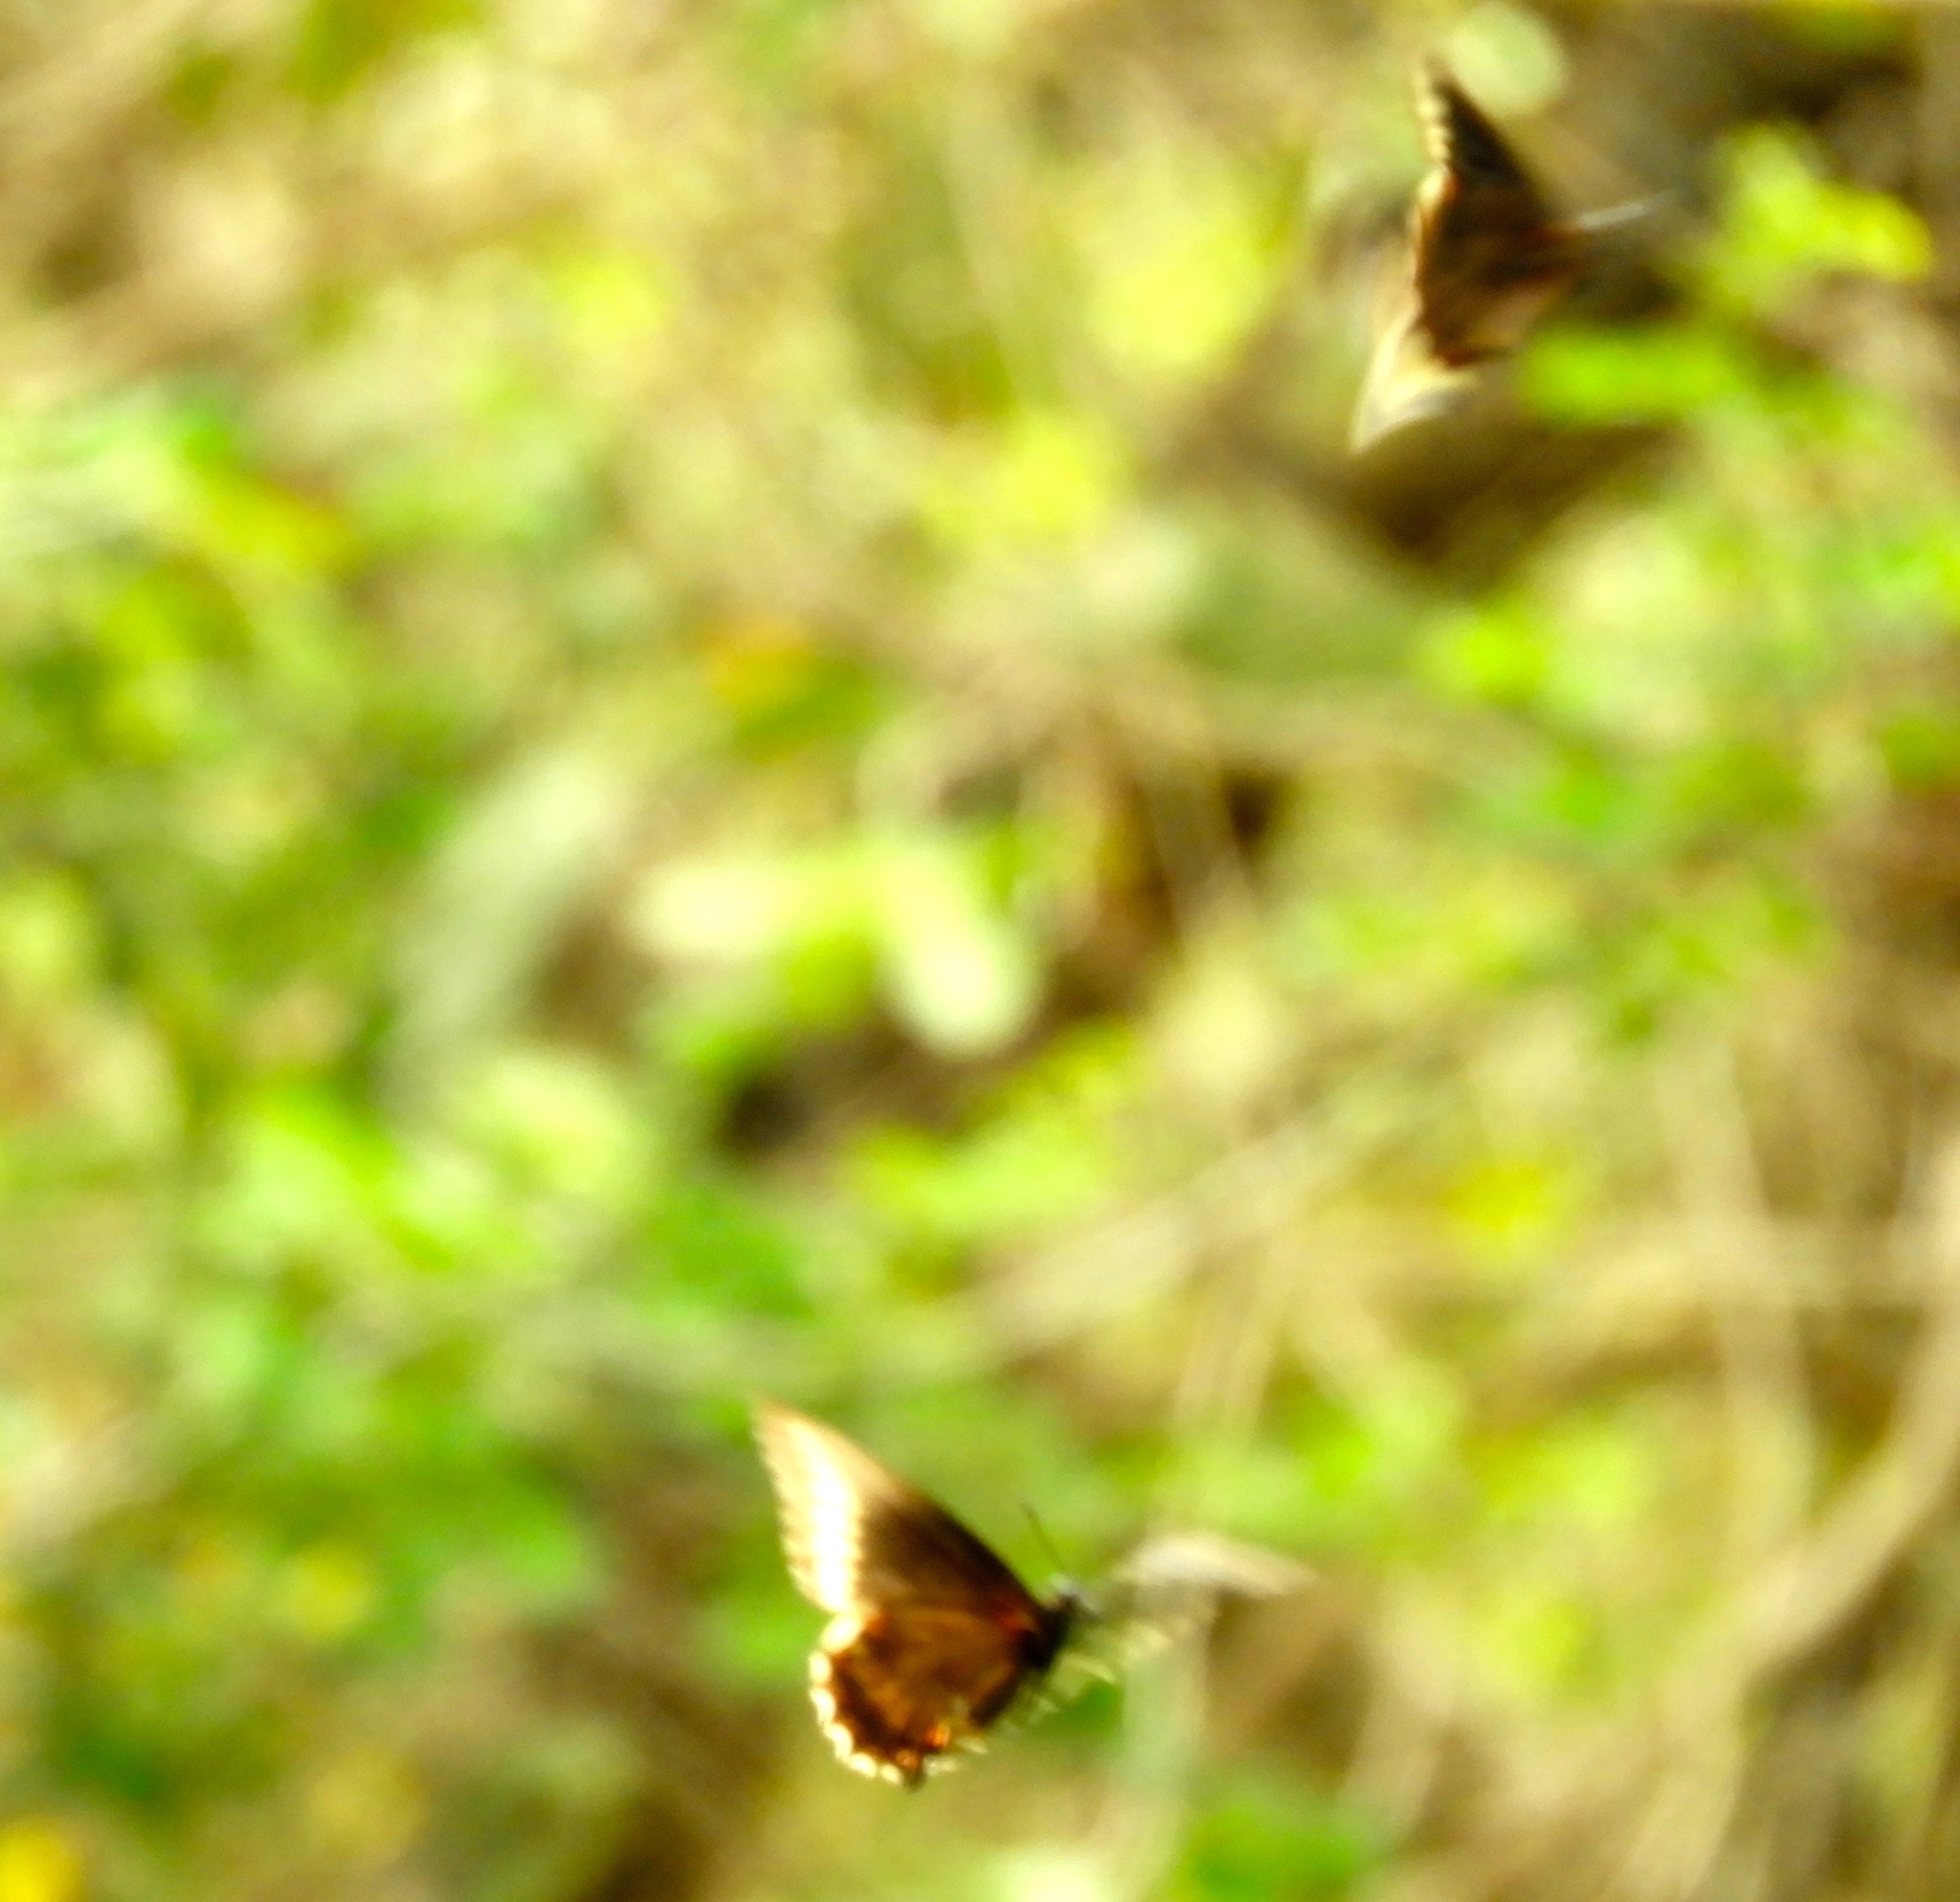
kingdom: Animalia
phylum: Arthropoda
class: Insecta
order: Lepidoptera
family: Papilionidae
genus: Battus
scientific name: Battus polydamas
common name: Polydamas swallowtail
